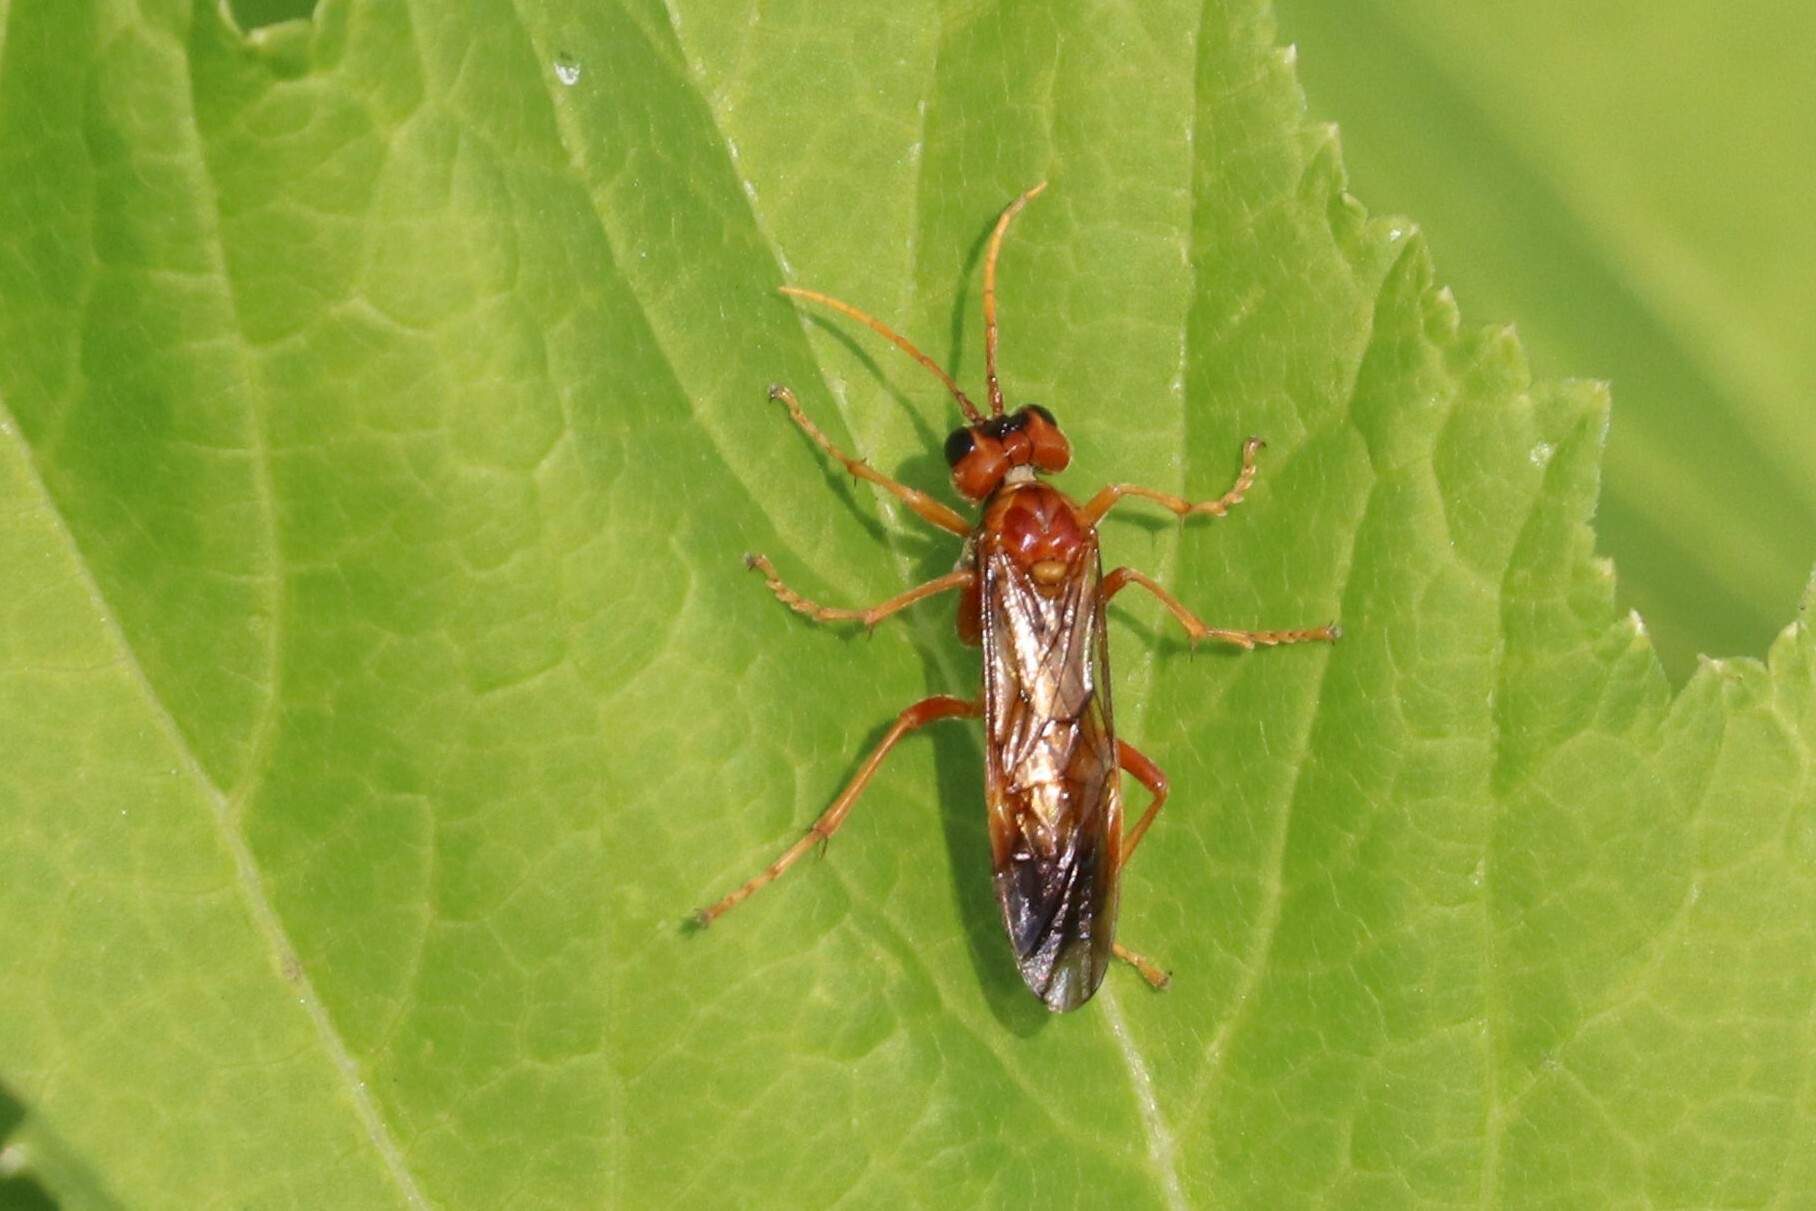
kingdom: Animalia
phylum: Arthropoda
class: Insecta
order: Hymenoptera
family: Tenthredinidae
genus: Tenthredo
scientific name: Tenthredo adusta
